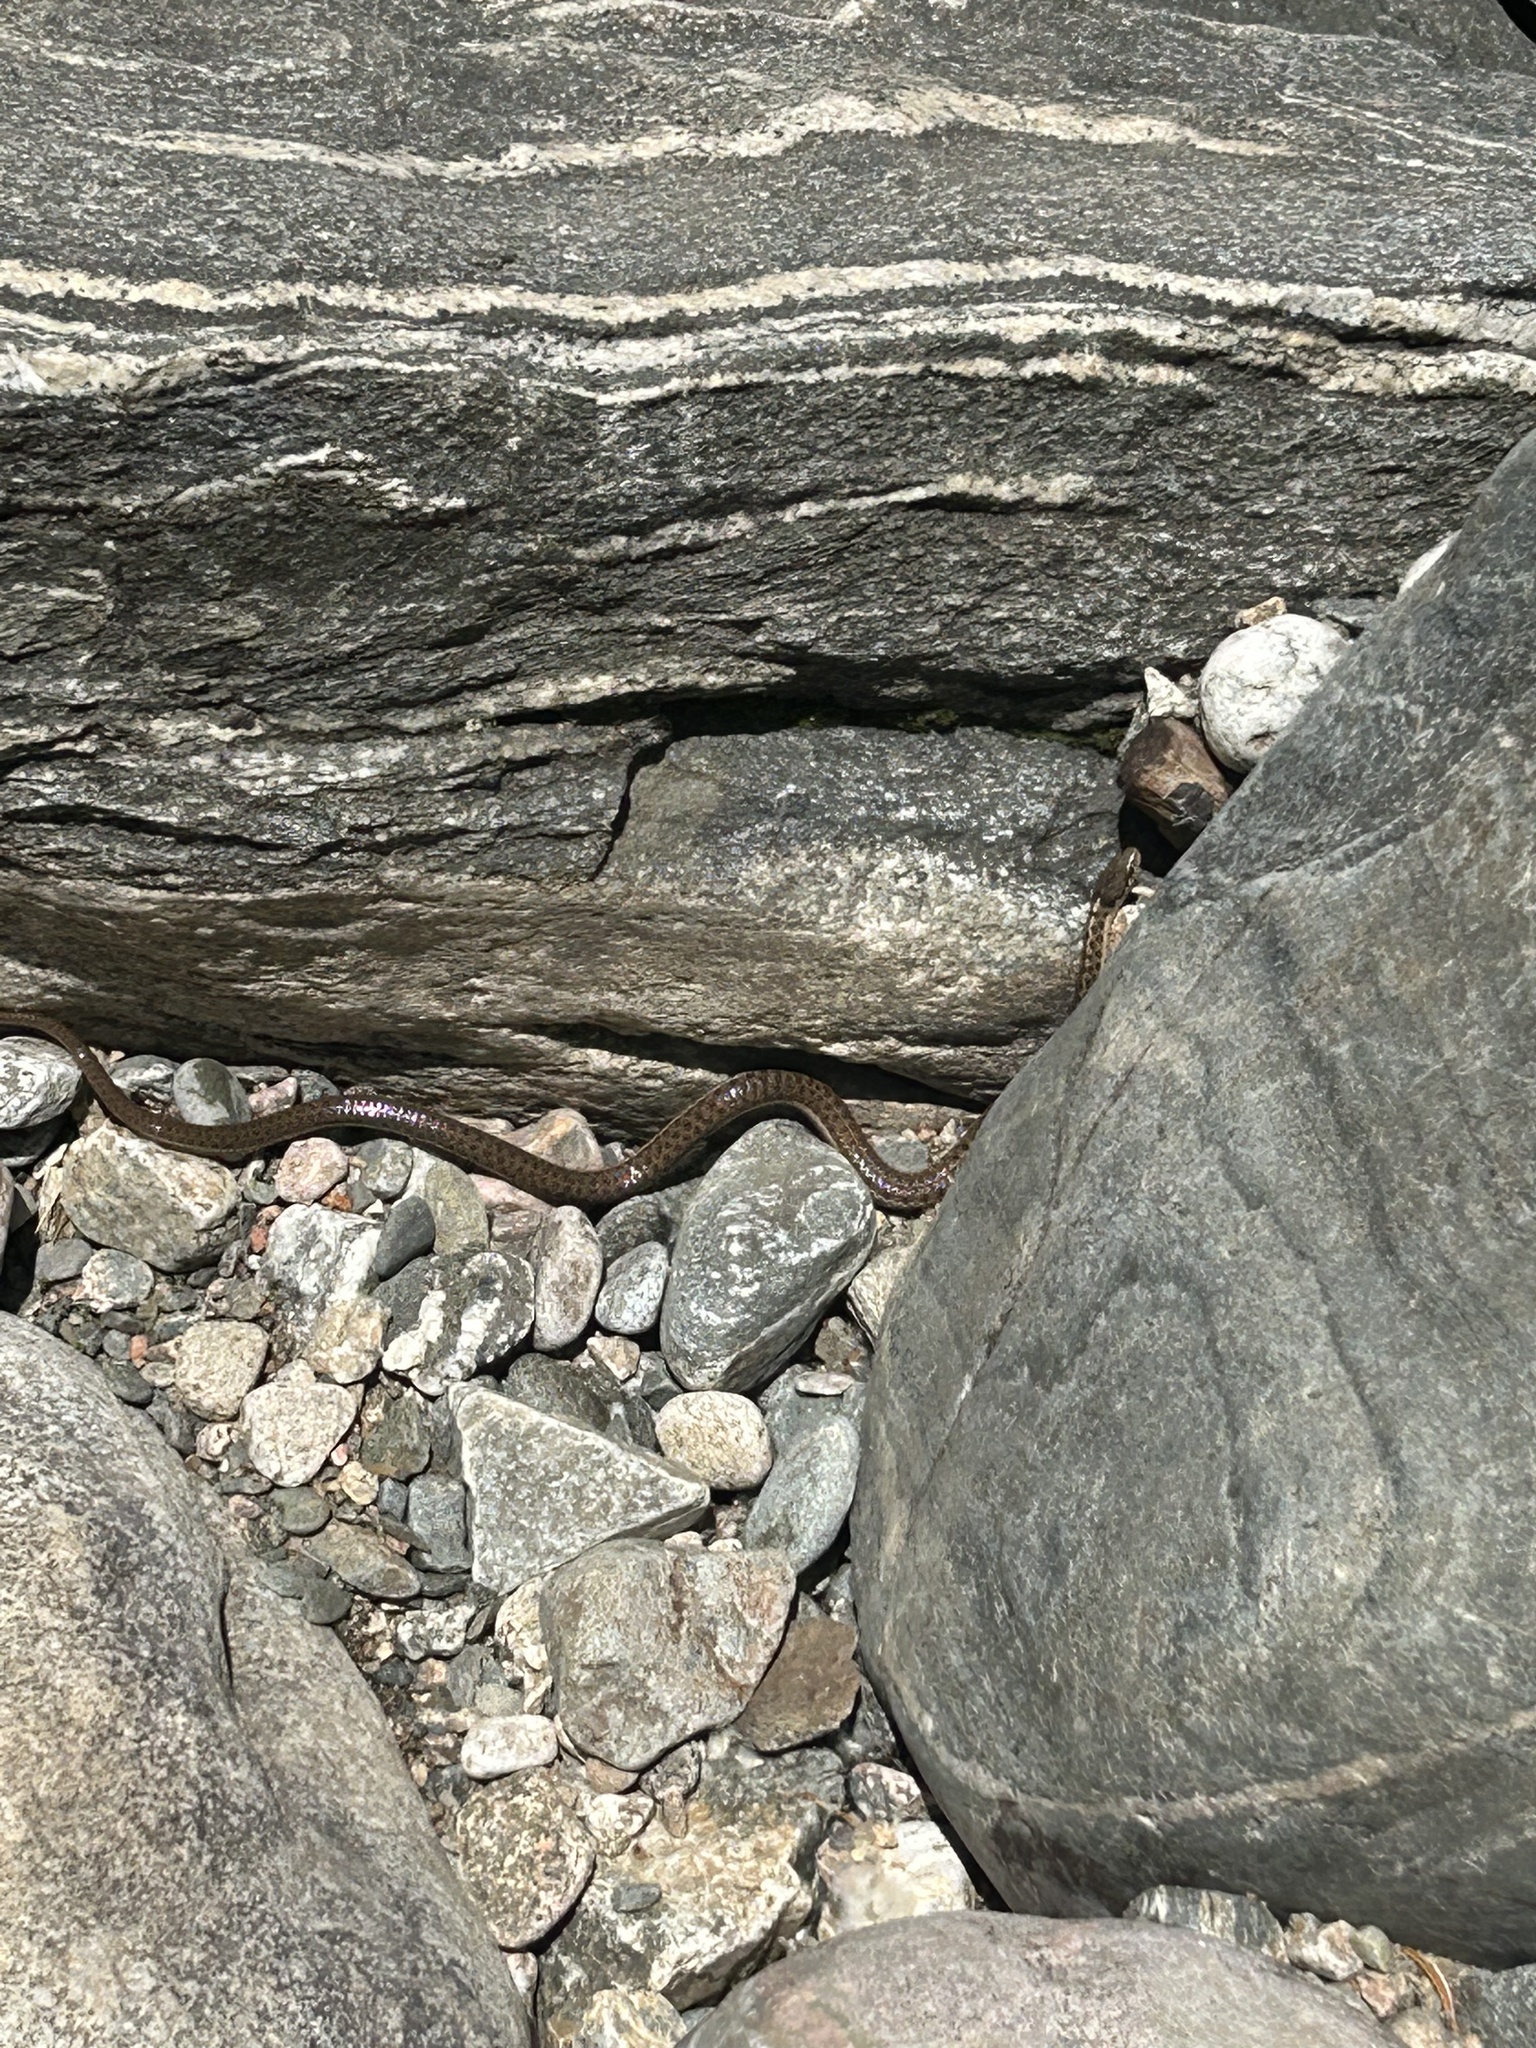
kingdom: Animalia
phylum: Chordata
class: Squamata
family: Colubridae
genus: Thamnophis
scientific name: Thamnophis elegans
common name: Western terrestrial garter snake
